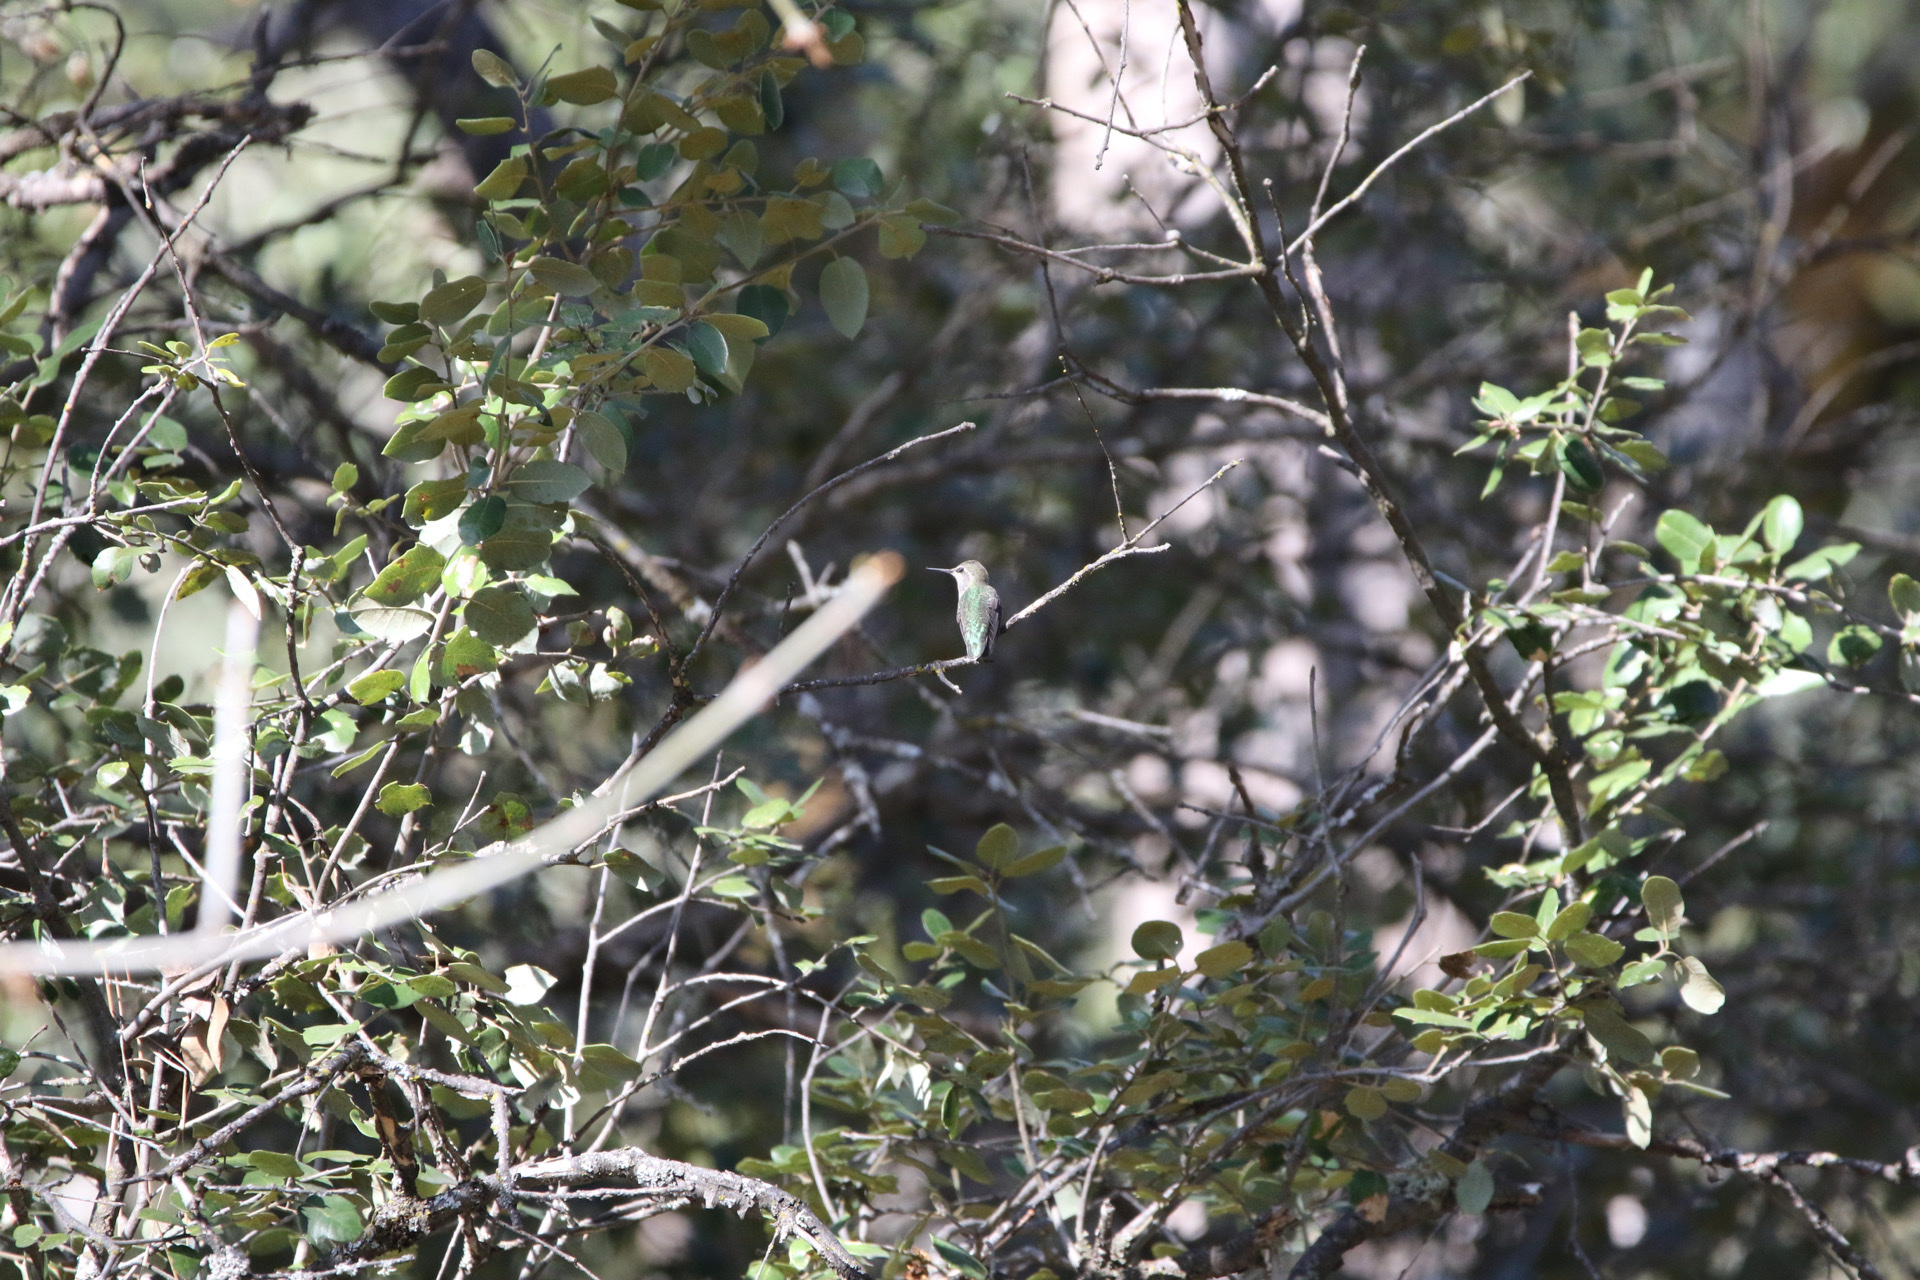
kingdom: Animalia
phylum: Chordata
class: Aves
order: Apodiformes
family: Trochilidae
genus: Calypte
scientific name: Calypte anna
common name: Anna's hummingbird
